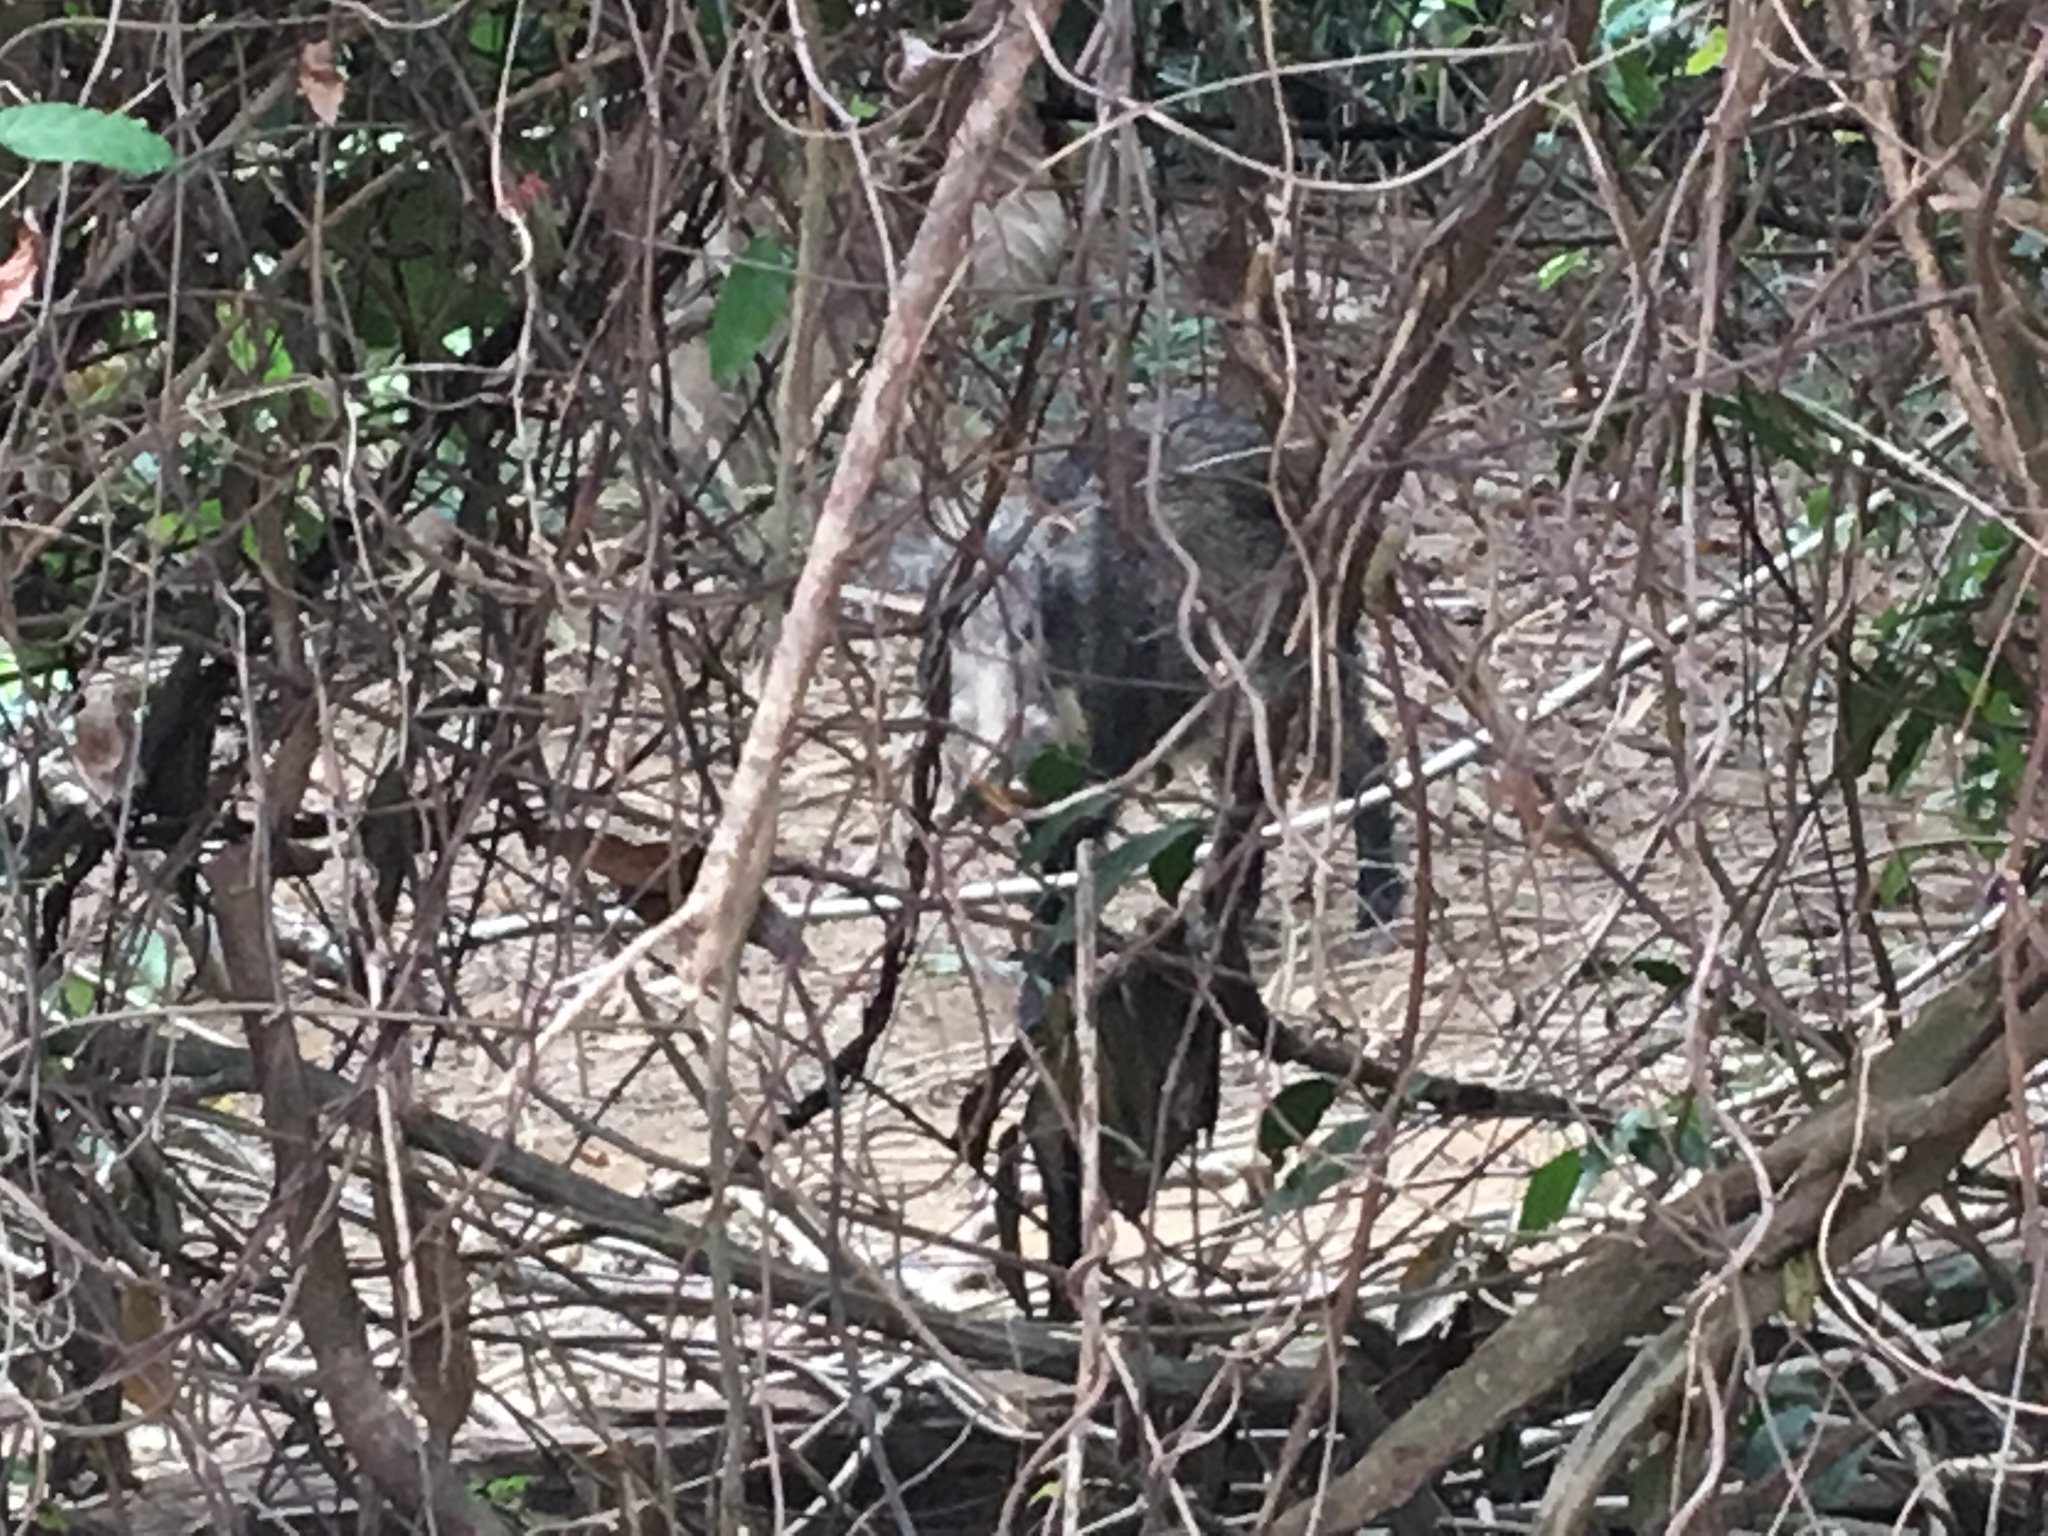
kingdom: Animalia
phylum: Chordata
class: Mammalia
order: Artiodactyla
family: Suidae
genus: Sus
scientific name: Sus scrofa
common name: Wild boar
